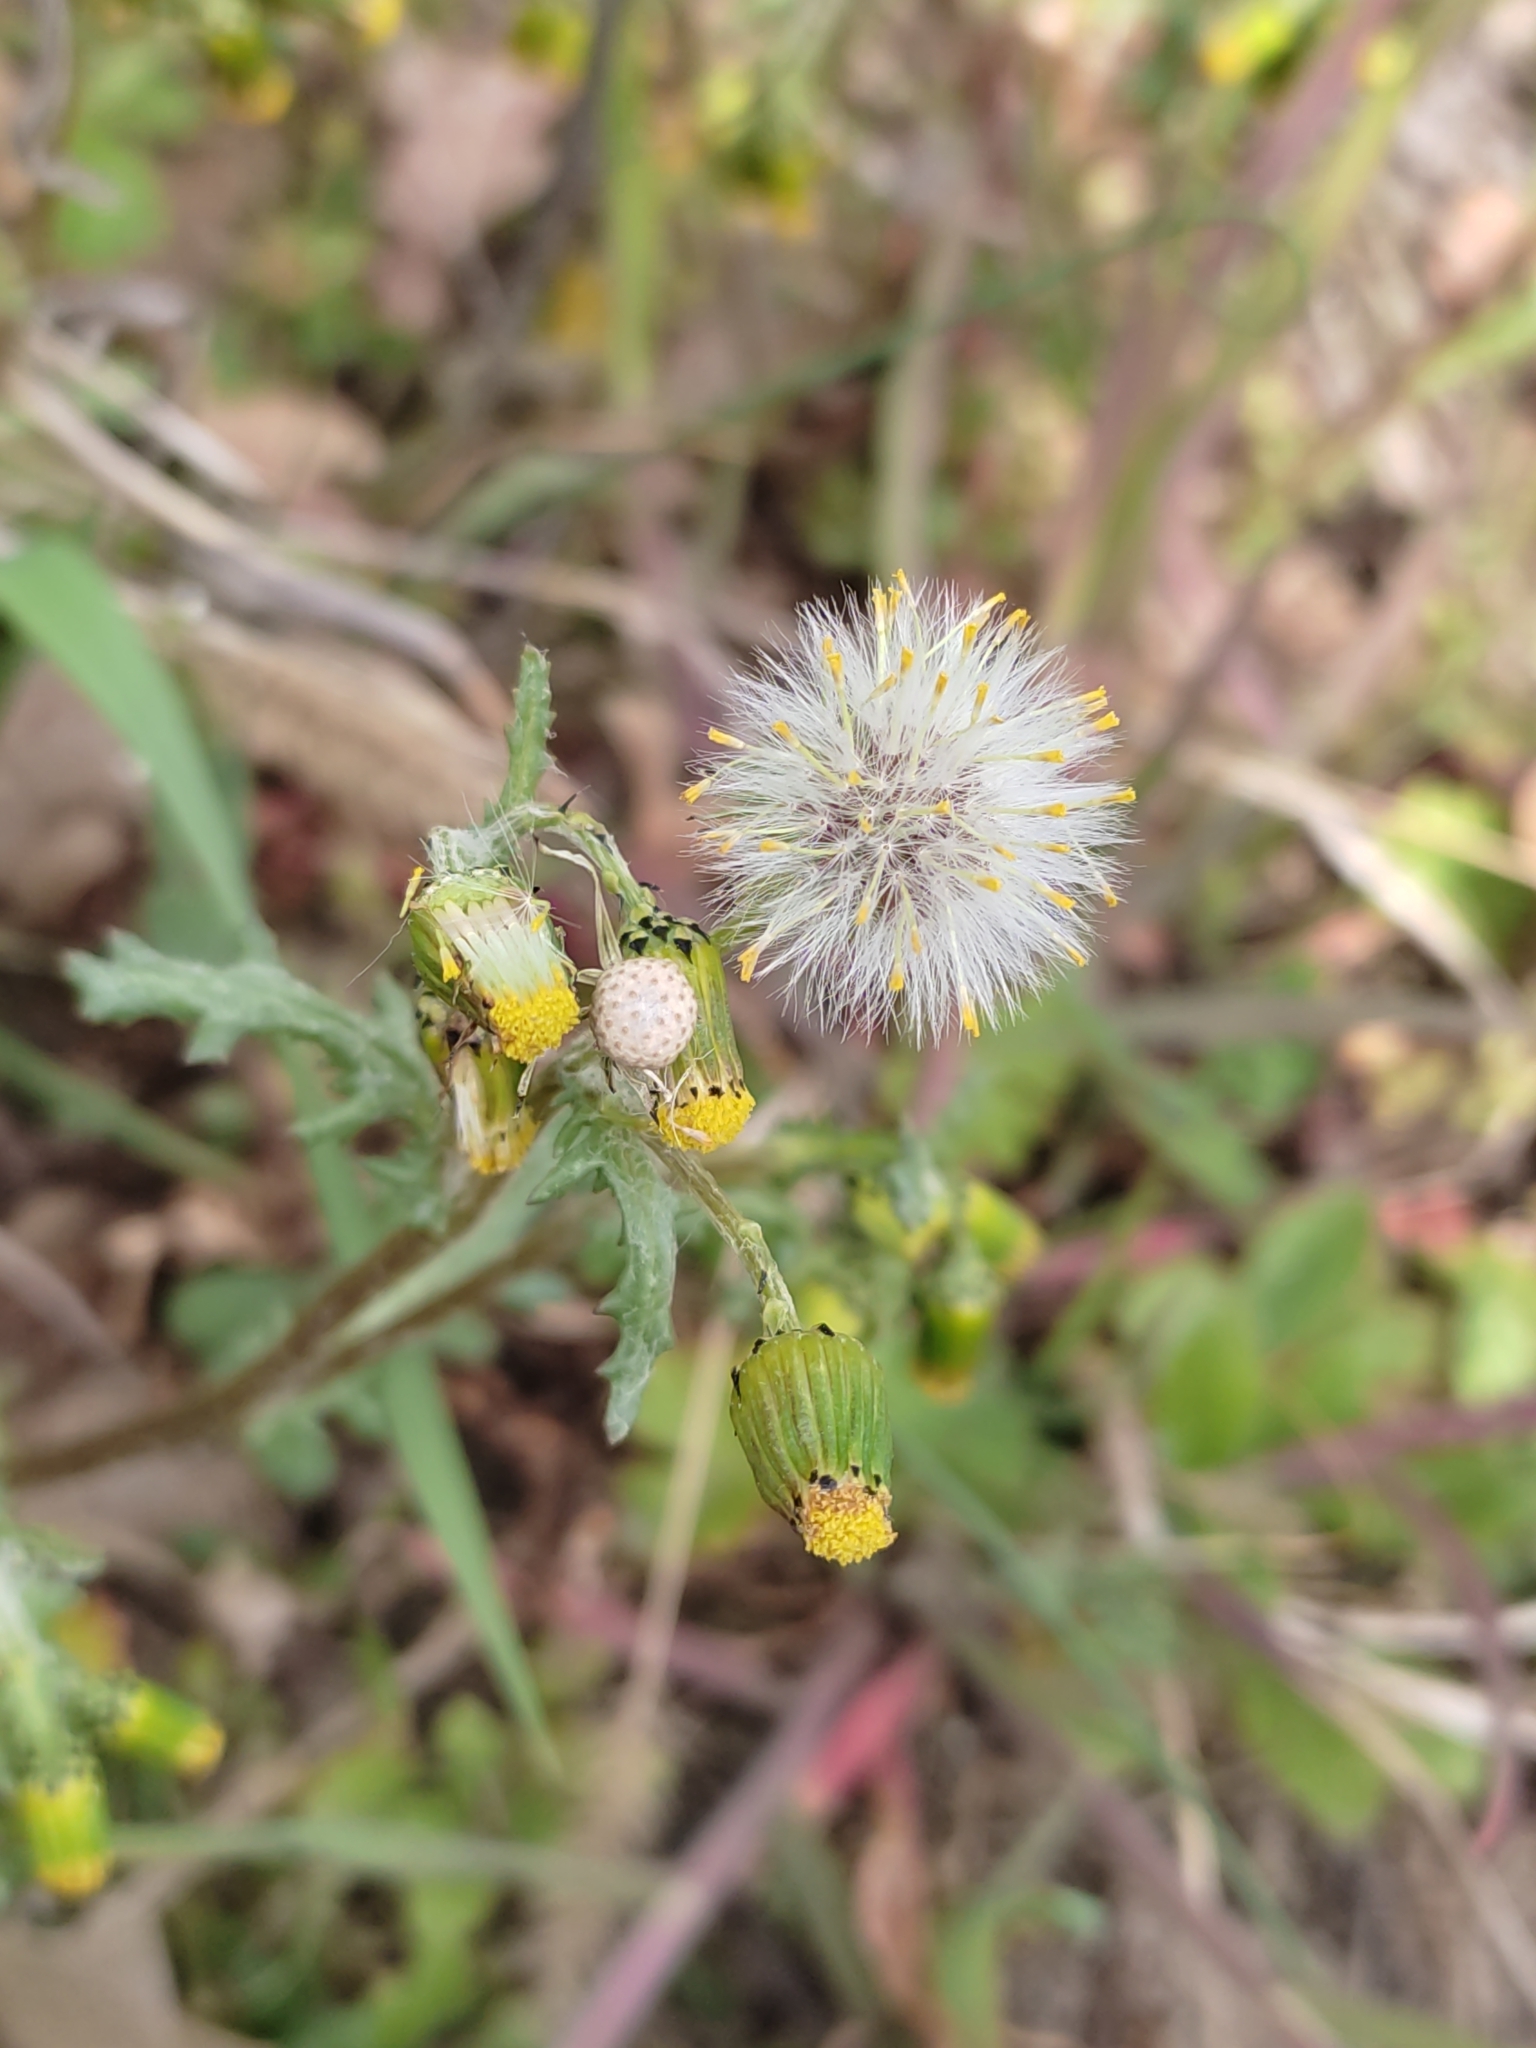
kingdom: Plantae
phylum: Tracheophyta
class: Magnoliopsida
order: Asterales
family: Asteraceae
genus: Senecio
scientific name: Senecio vulgaris
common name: Old-man-in-the-spring
